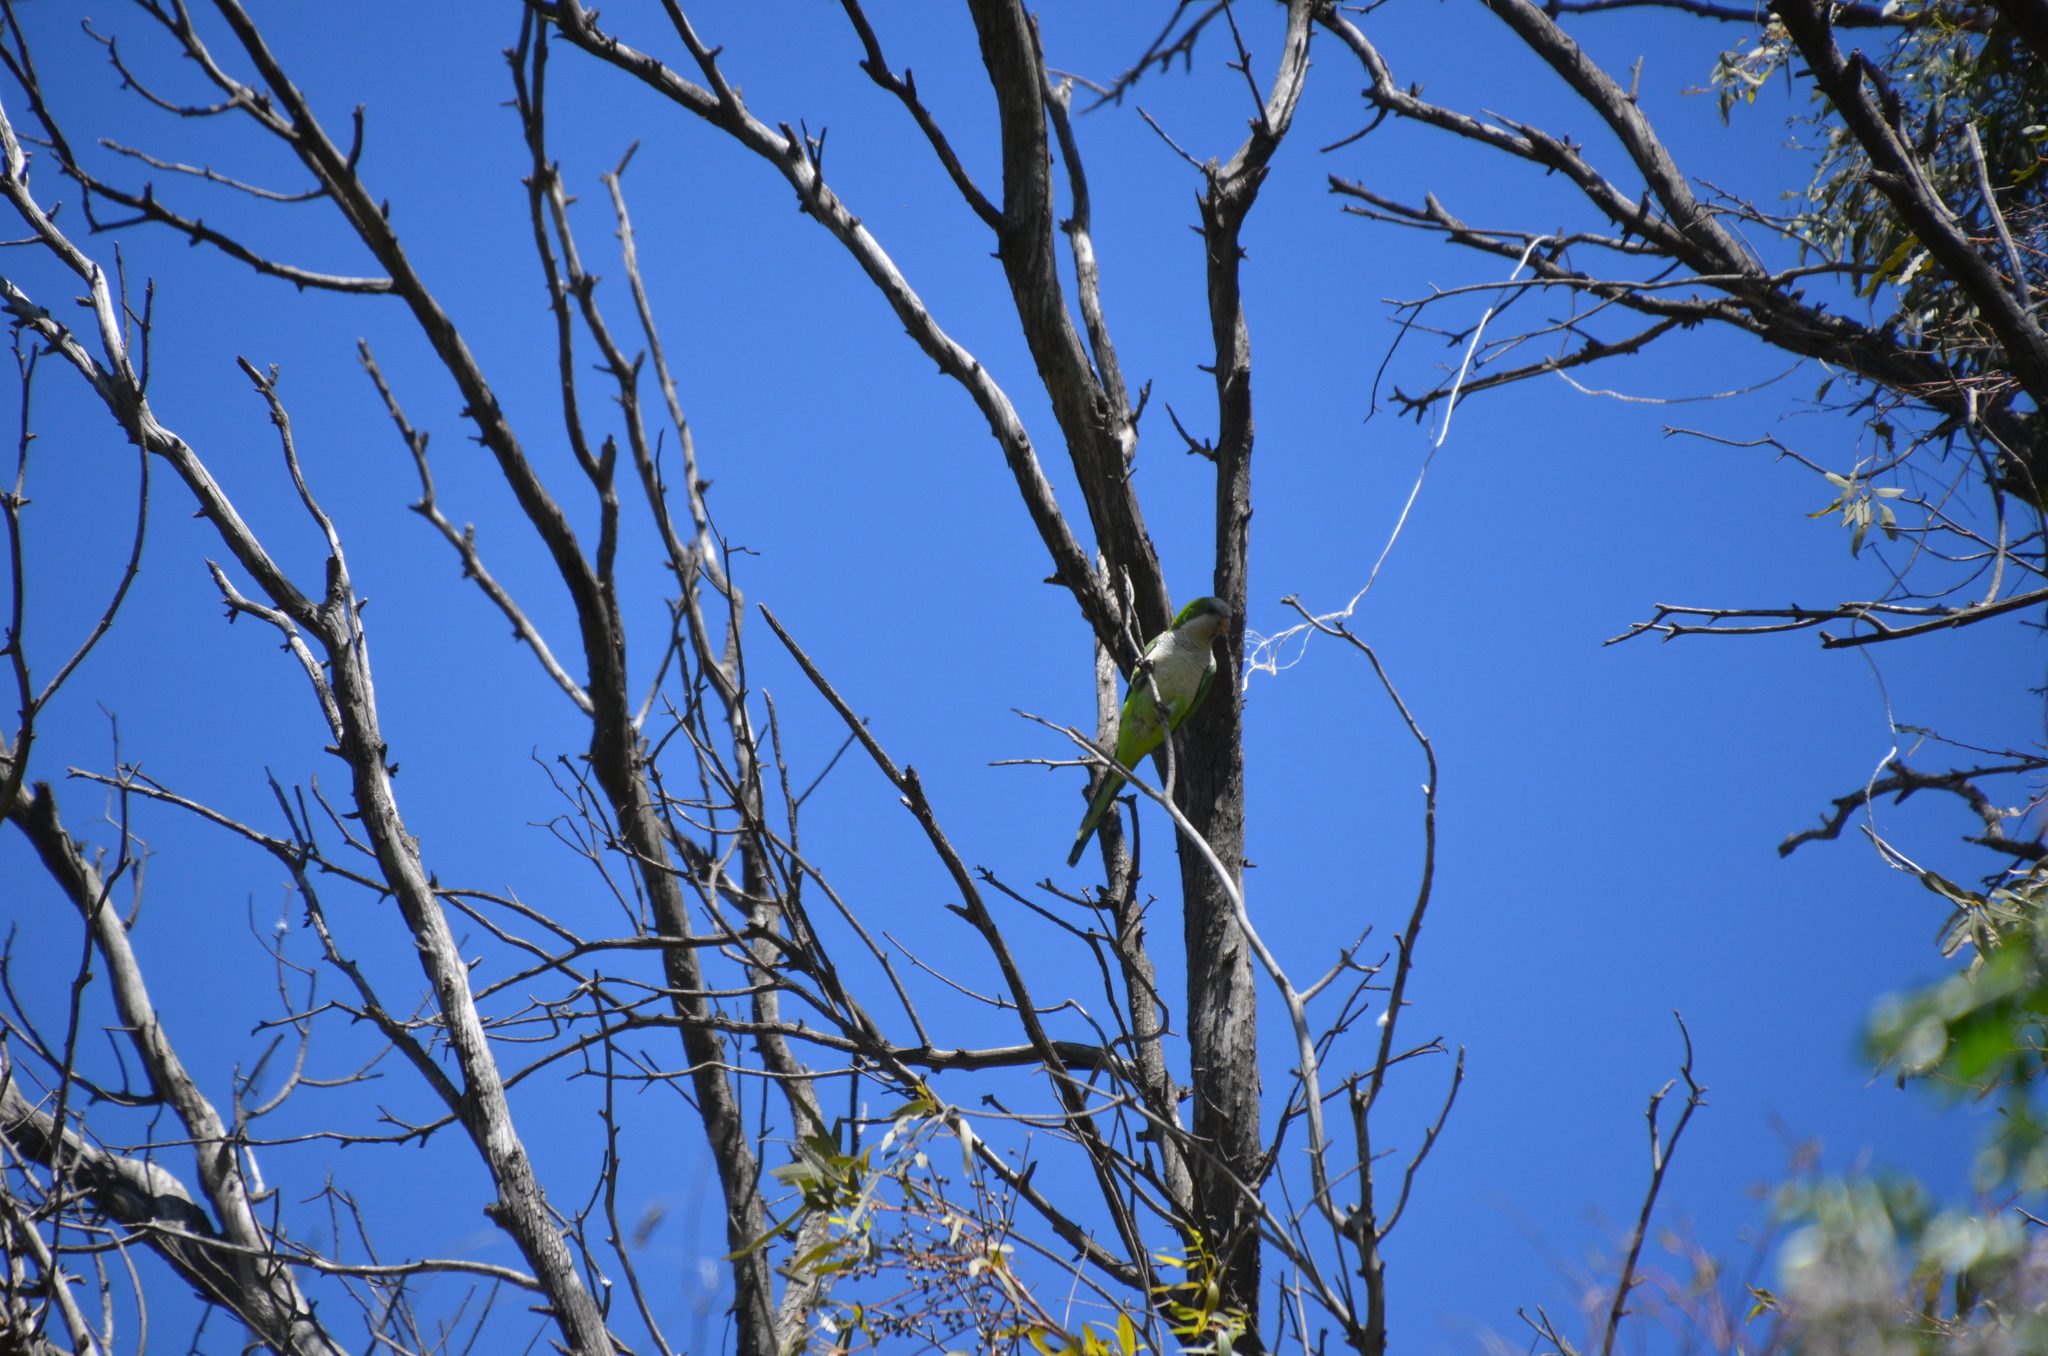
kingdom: Animalia
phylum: Chordata
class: Aves
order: Psittaciformes
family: Psittacidae
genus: Myiopsitta
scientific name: Myiopsitta monachus
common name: Monk parakeet
